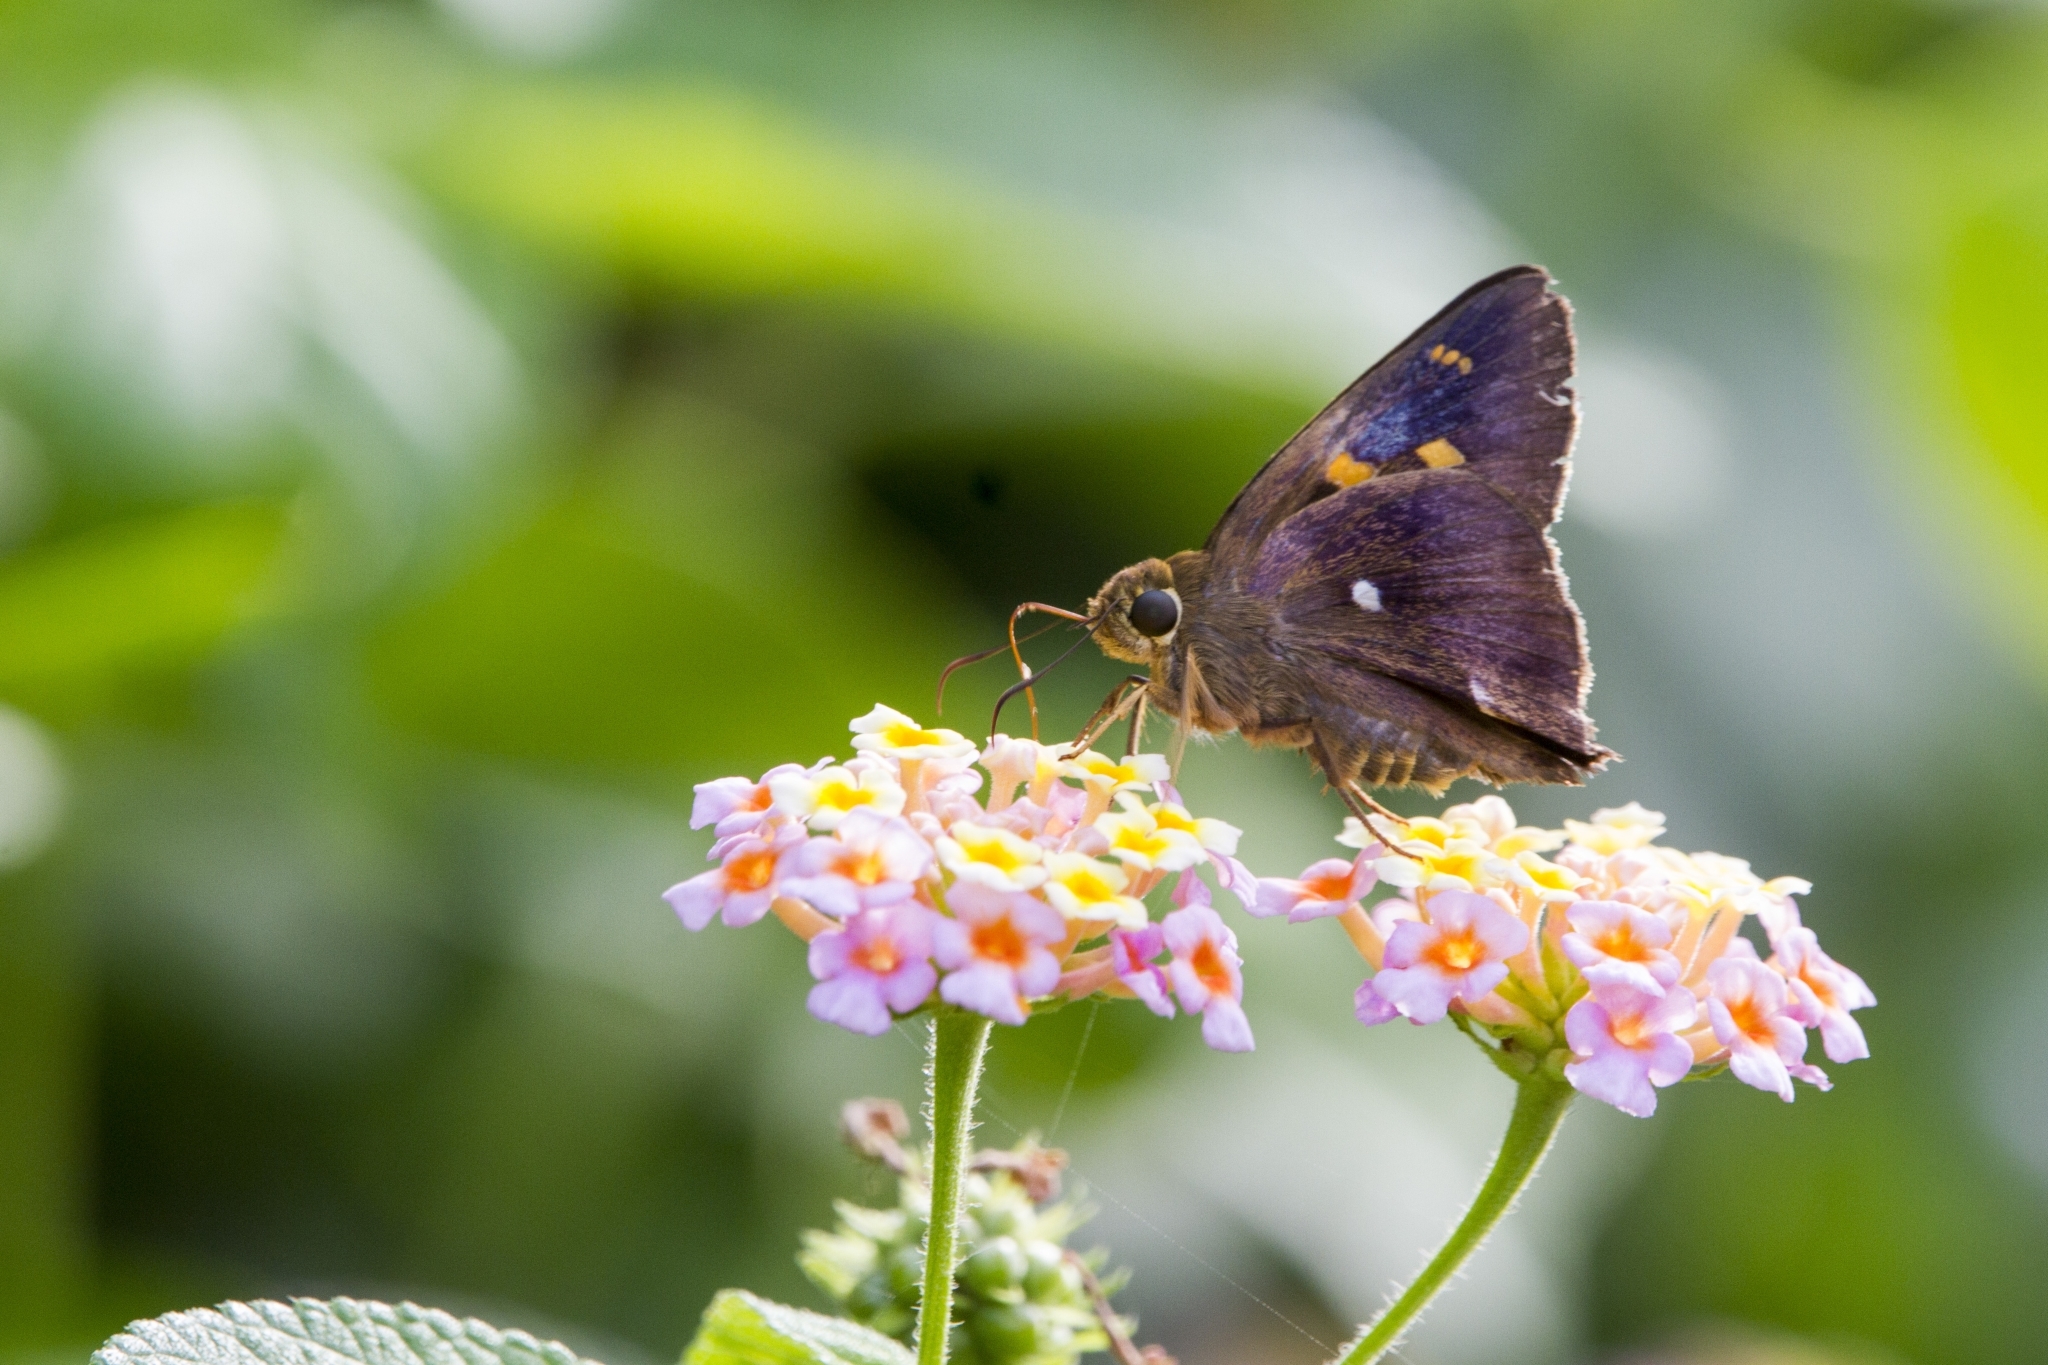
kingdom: Animalia
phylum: Arthropoda
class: Insecta
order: Lepidoptera
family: Hesperiidae
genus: Hasora
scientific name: Hasora badra
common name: Common awl
